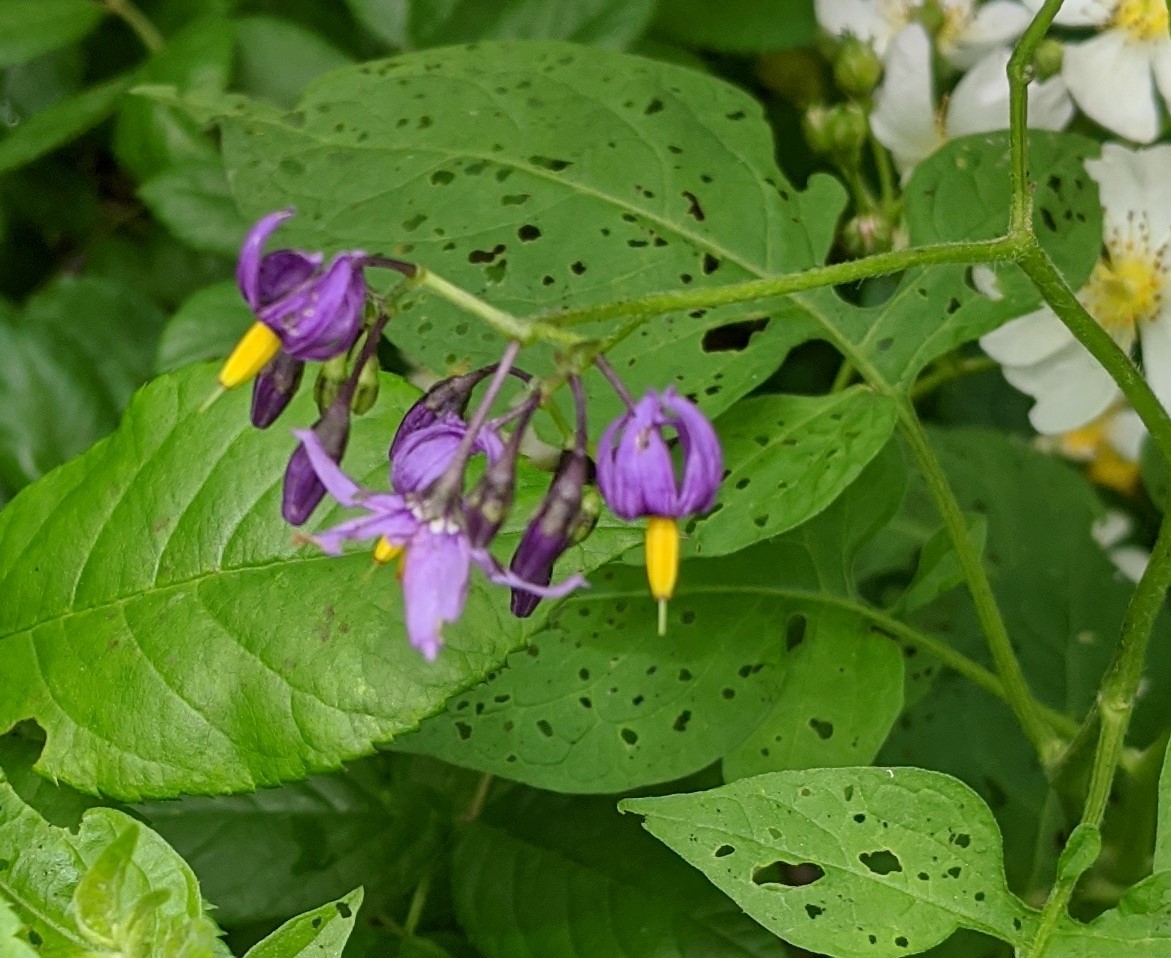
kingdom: Plantae
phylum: Tracheophyta
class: Magnoliopsida
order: Solanales
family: Solanaceae
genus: Solanum
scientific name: Solanum dulcamara
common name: Climbing nightshade
